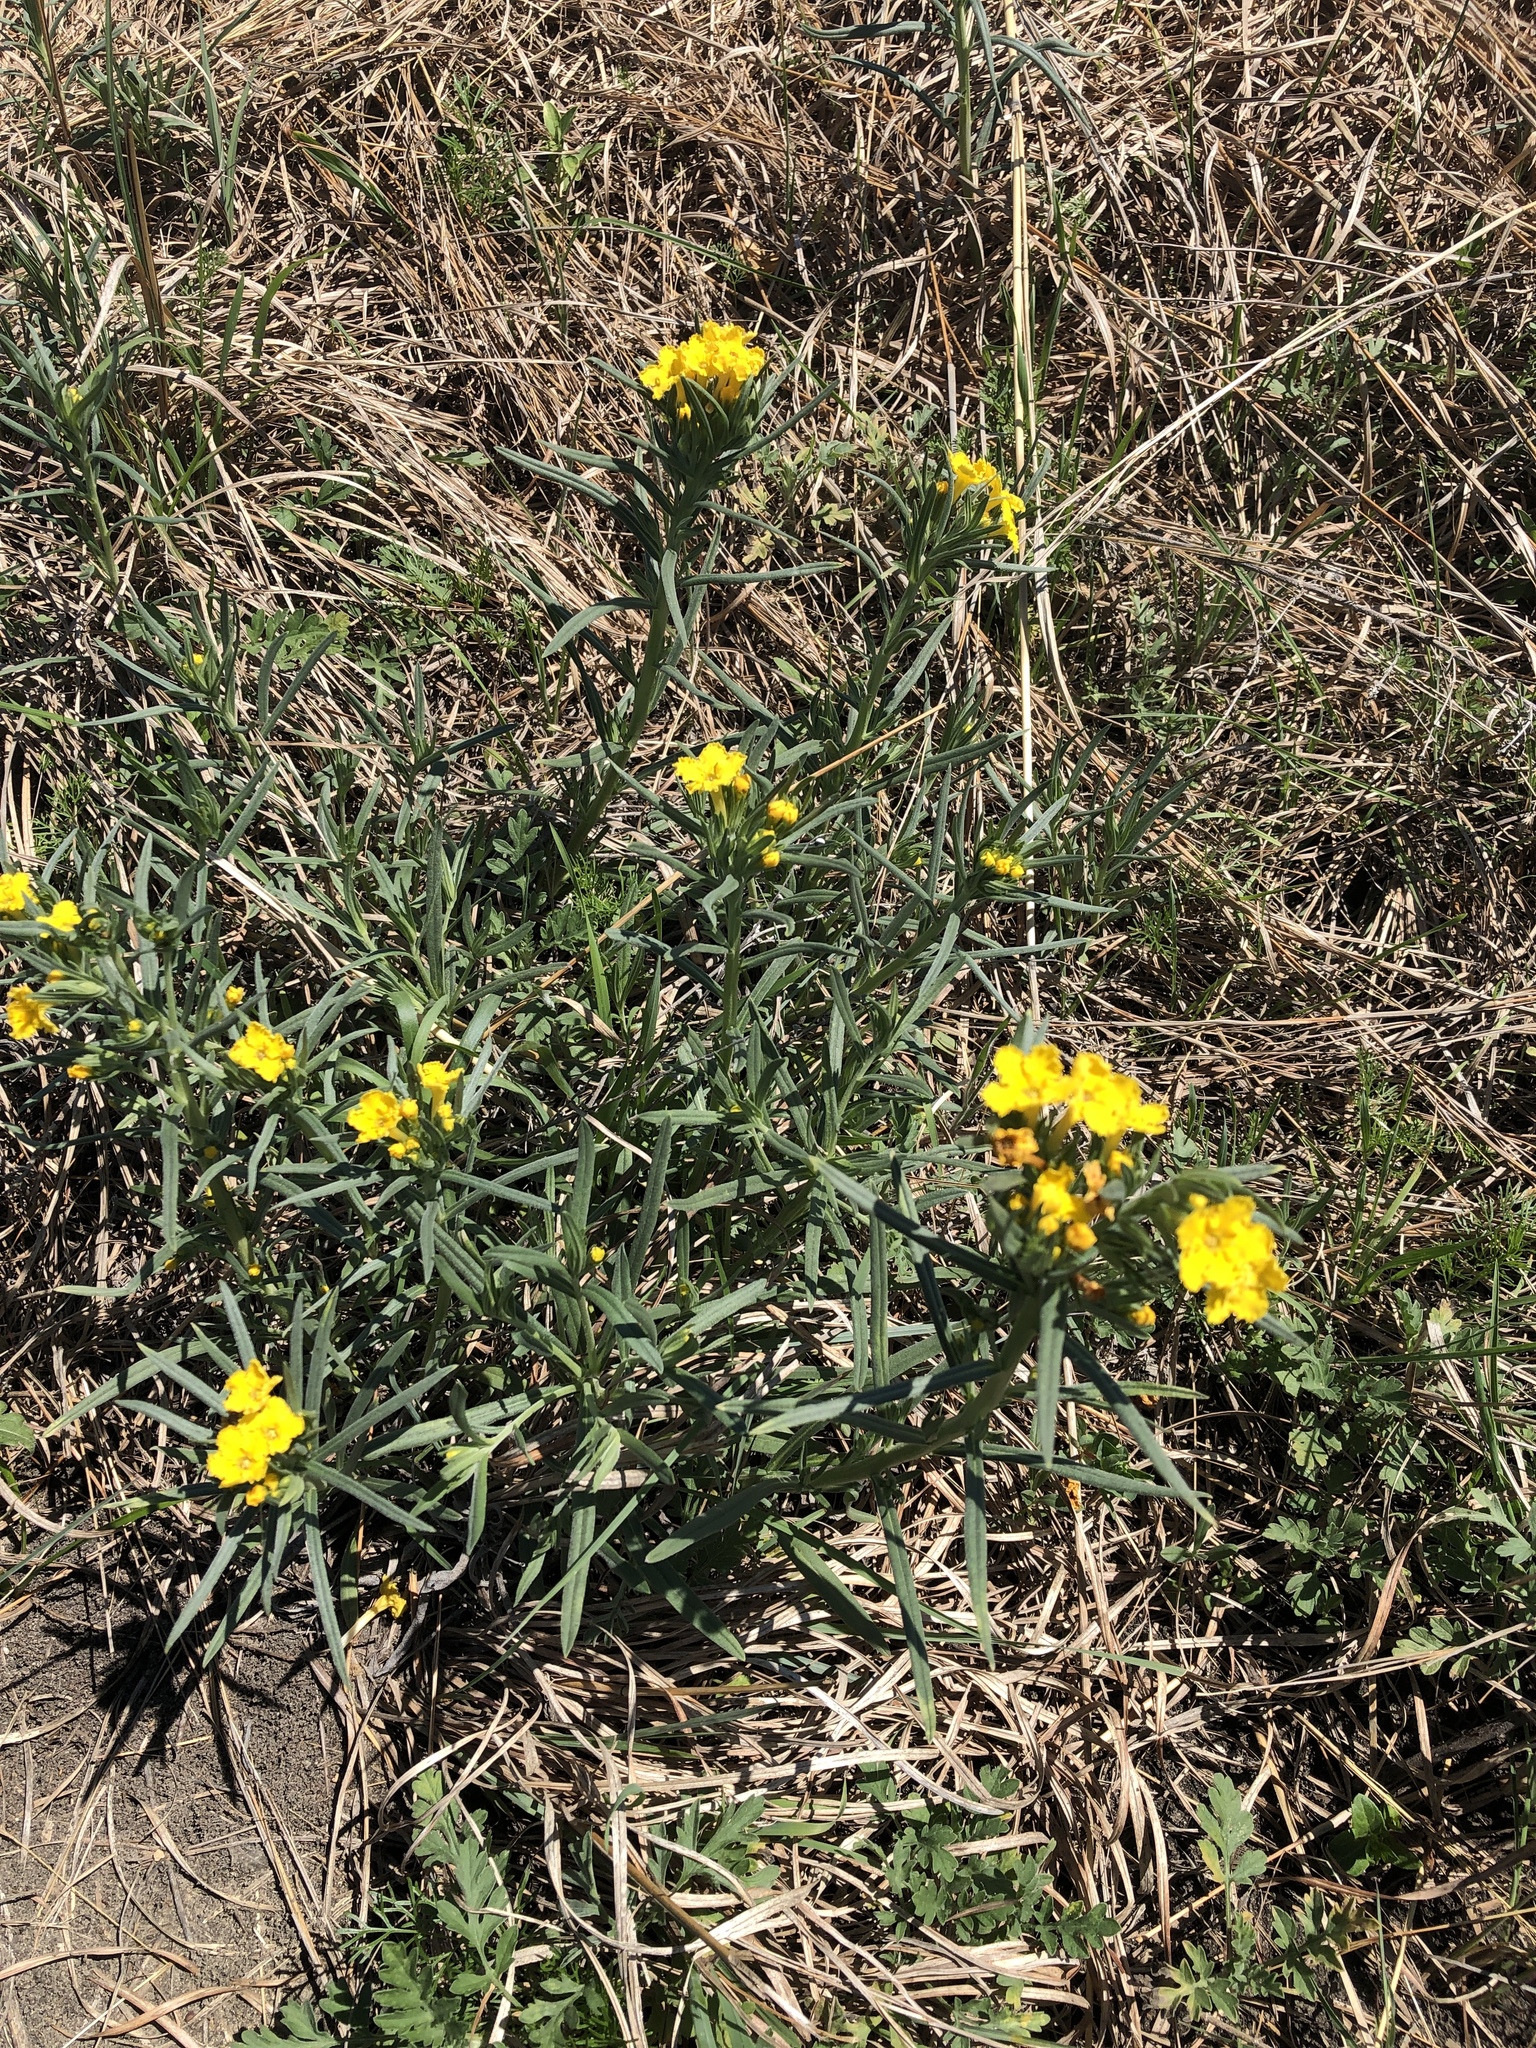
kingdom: Plantae
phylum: Tracheophyta
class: Magnoliopsida
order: Boraginales
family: Boraginaceae
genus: Lithospermum
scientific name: Lithospermum incisum
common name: Fringed gromwell
